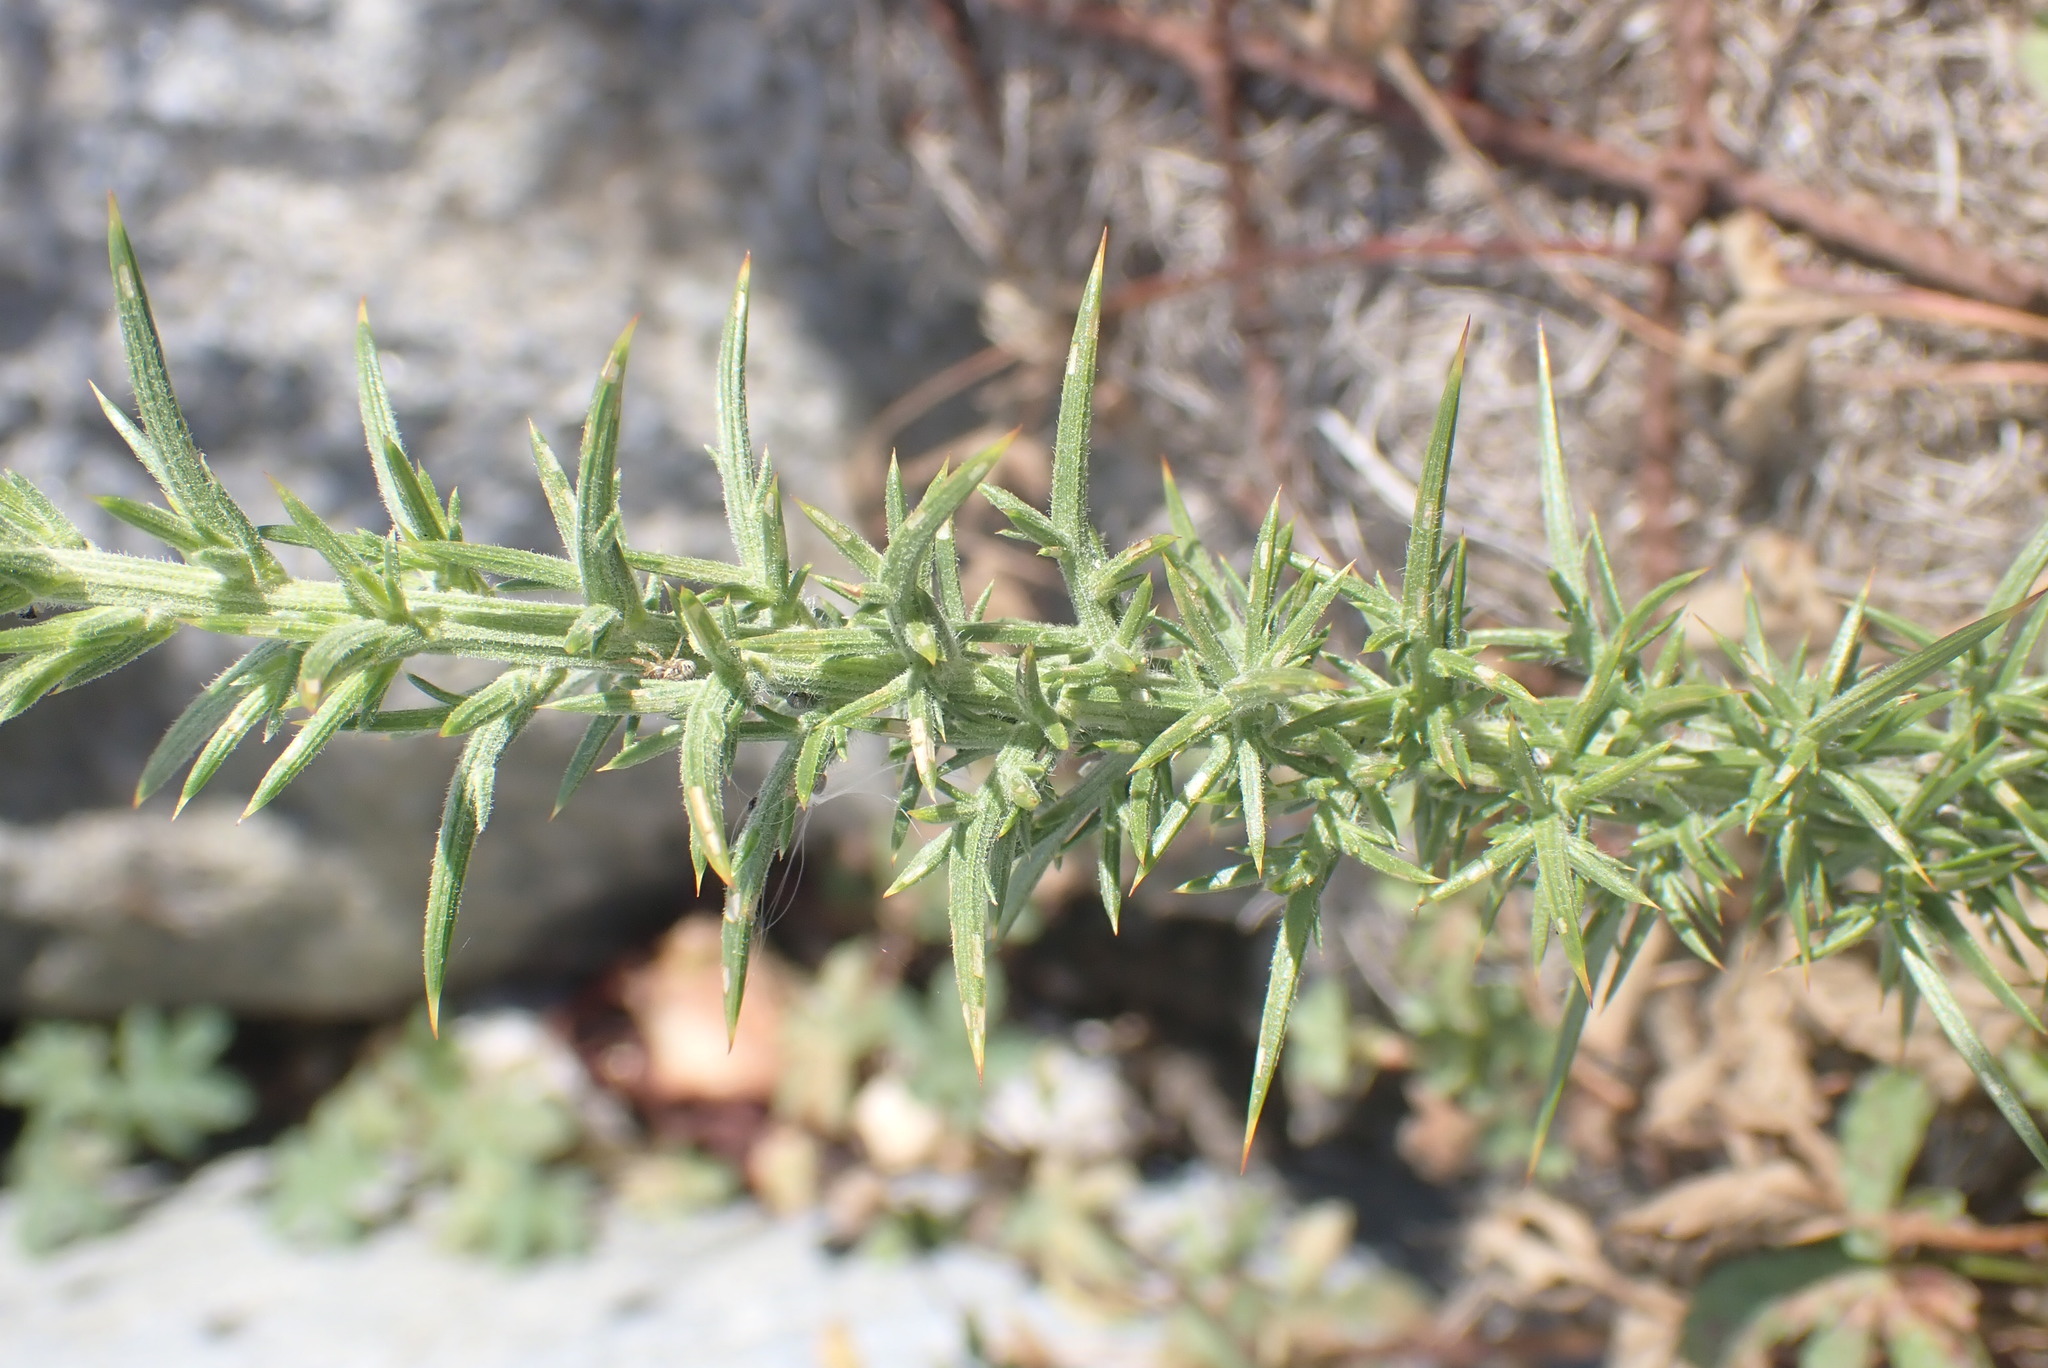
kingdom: Plantae
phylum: Tracheophyta
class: Magnoliopsida
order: Fabales
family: Fabaceae
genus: Ulex
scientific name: Ulex europaeus
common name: Common gorse
